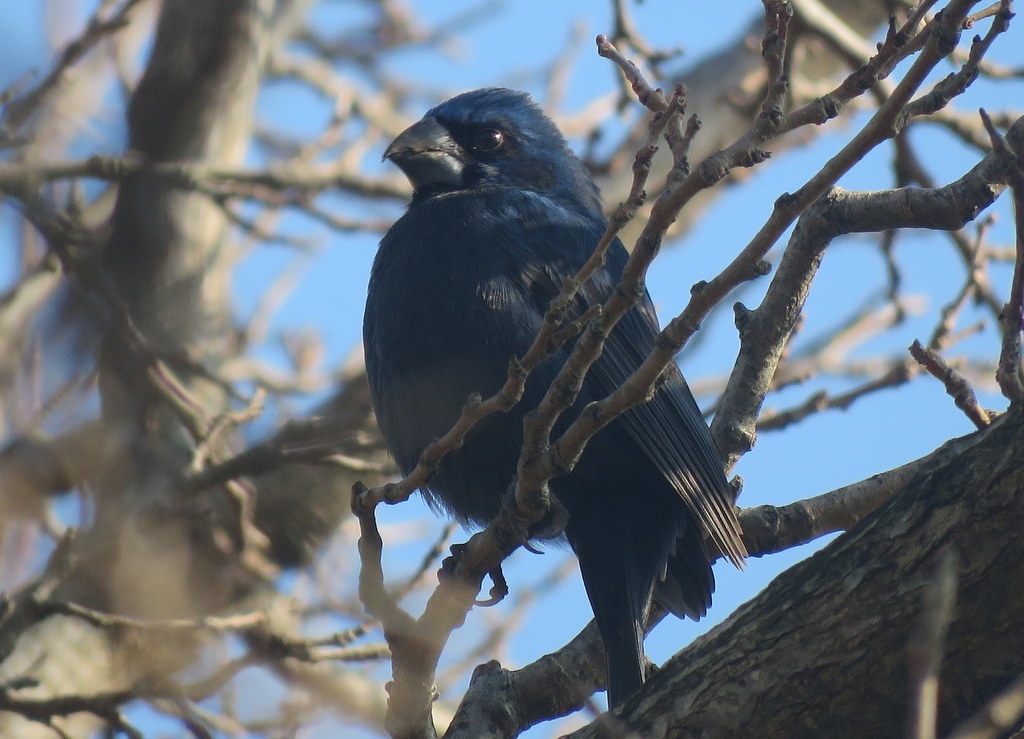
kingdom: Animalia
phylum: Chordata
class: Aves
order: Passeriformes
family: Cardinalidae
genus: Cyanoloxia
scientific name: Cyanoloxia brissonii
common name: Ultramarine grosbeak
